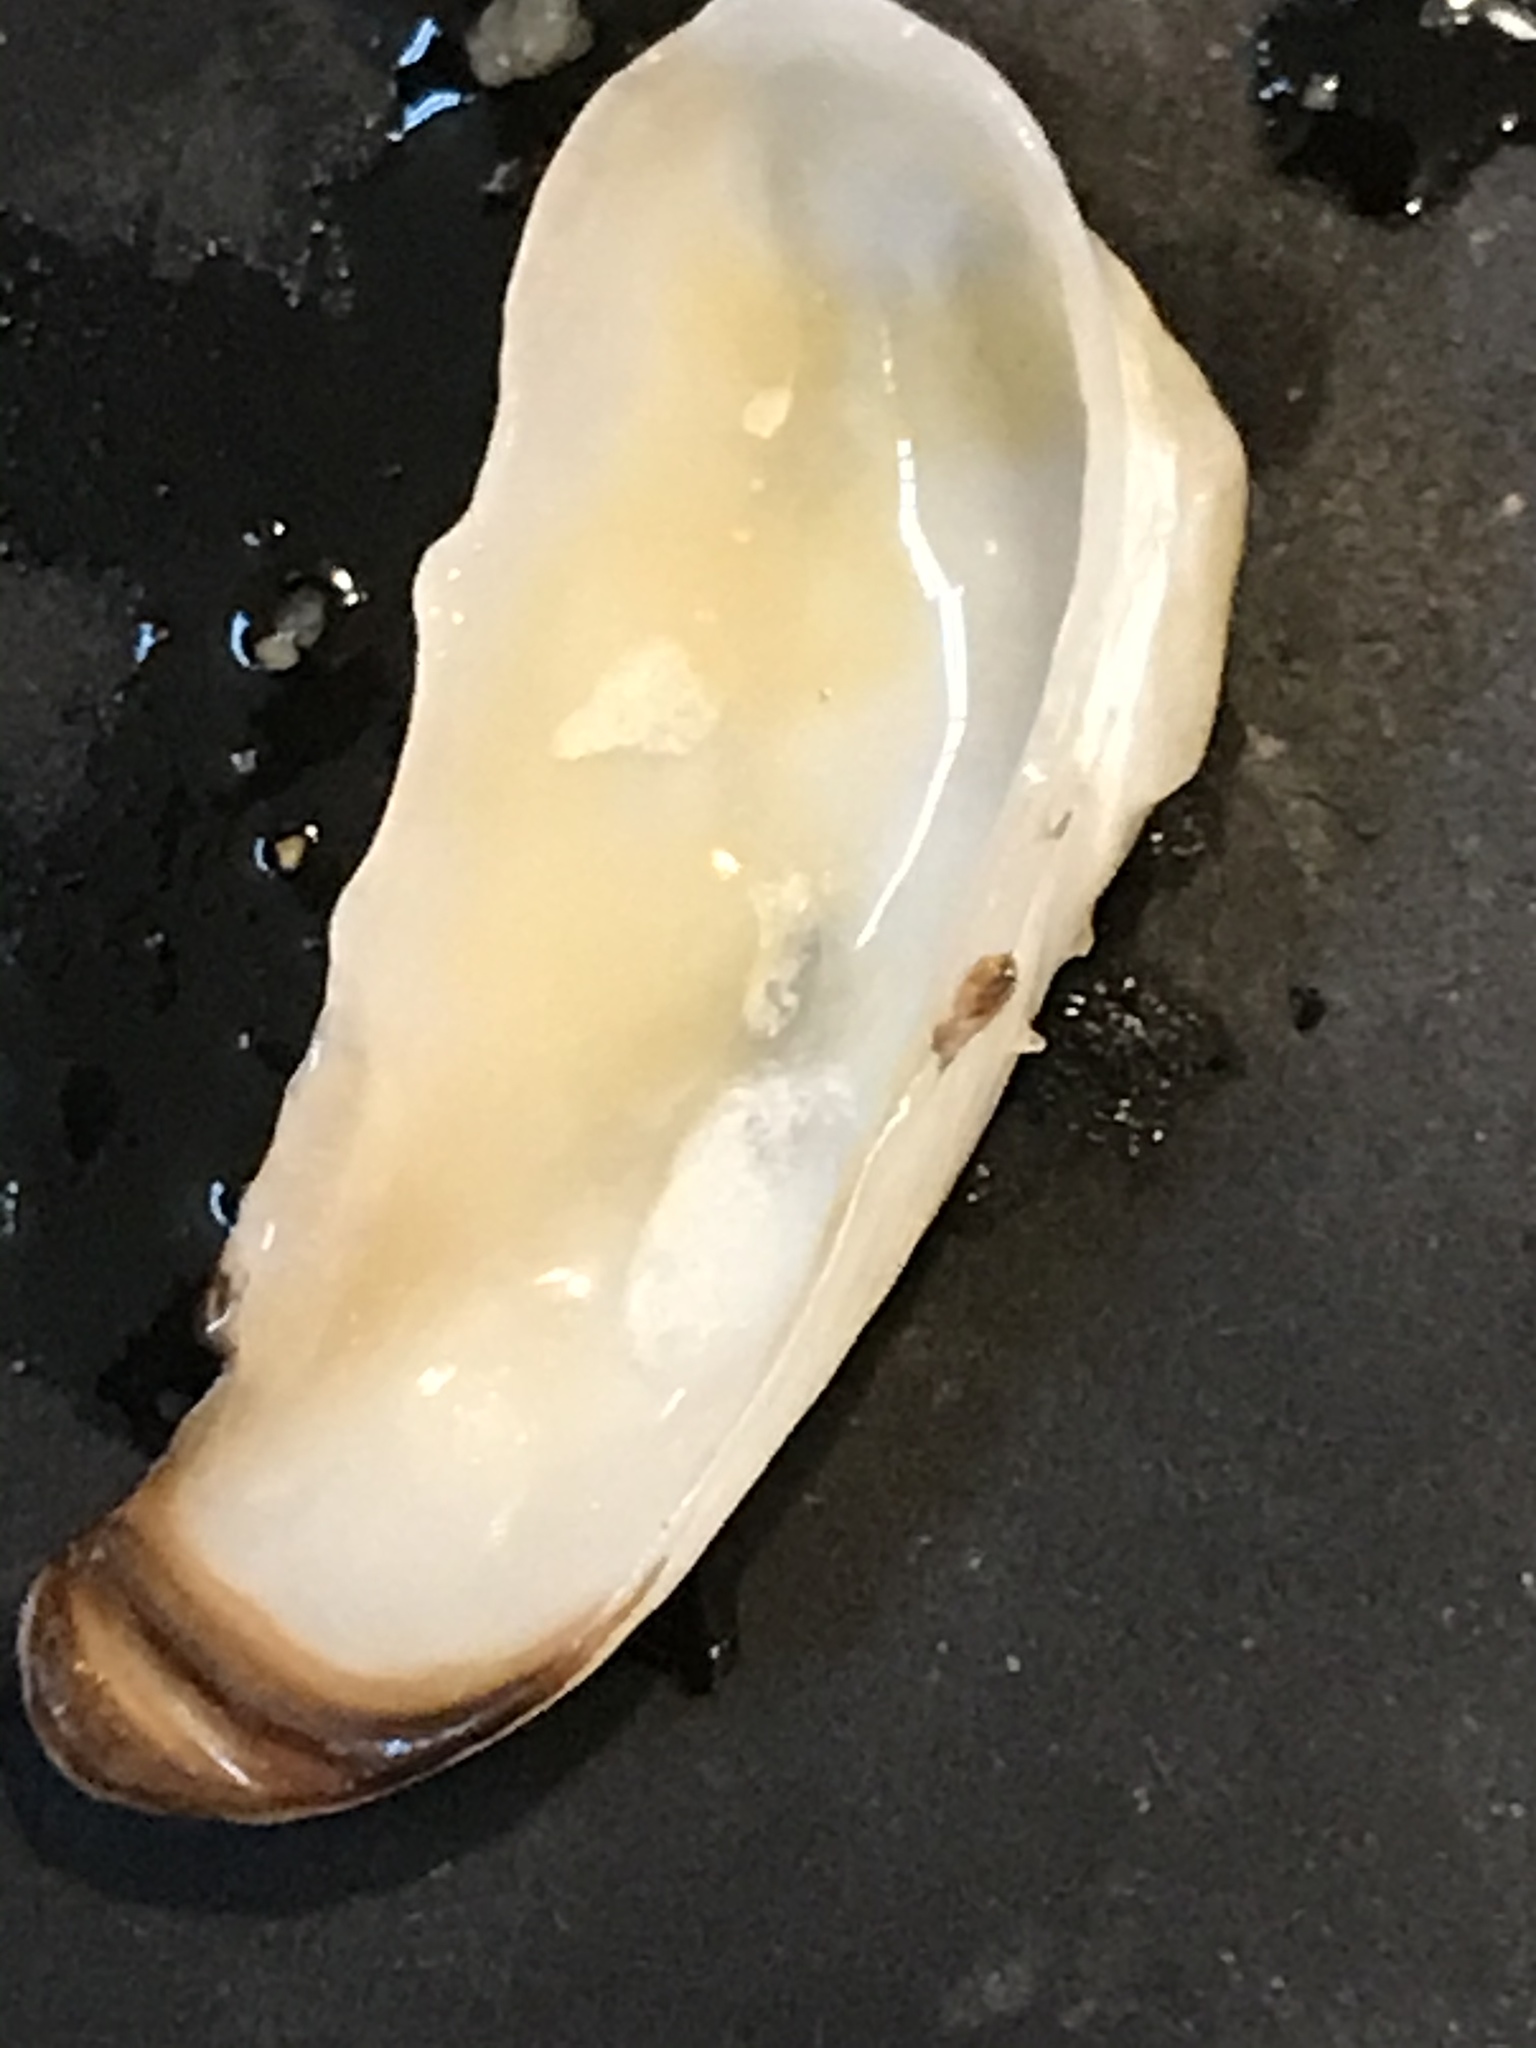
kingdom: Animalia
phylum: Mollusca
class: Bivalvia
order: Adapedonta
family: Hiatellidae
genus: Hiatella
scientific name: Hiatella arctica
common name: Arctic hiatella
